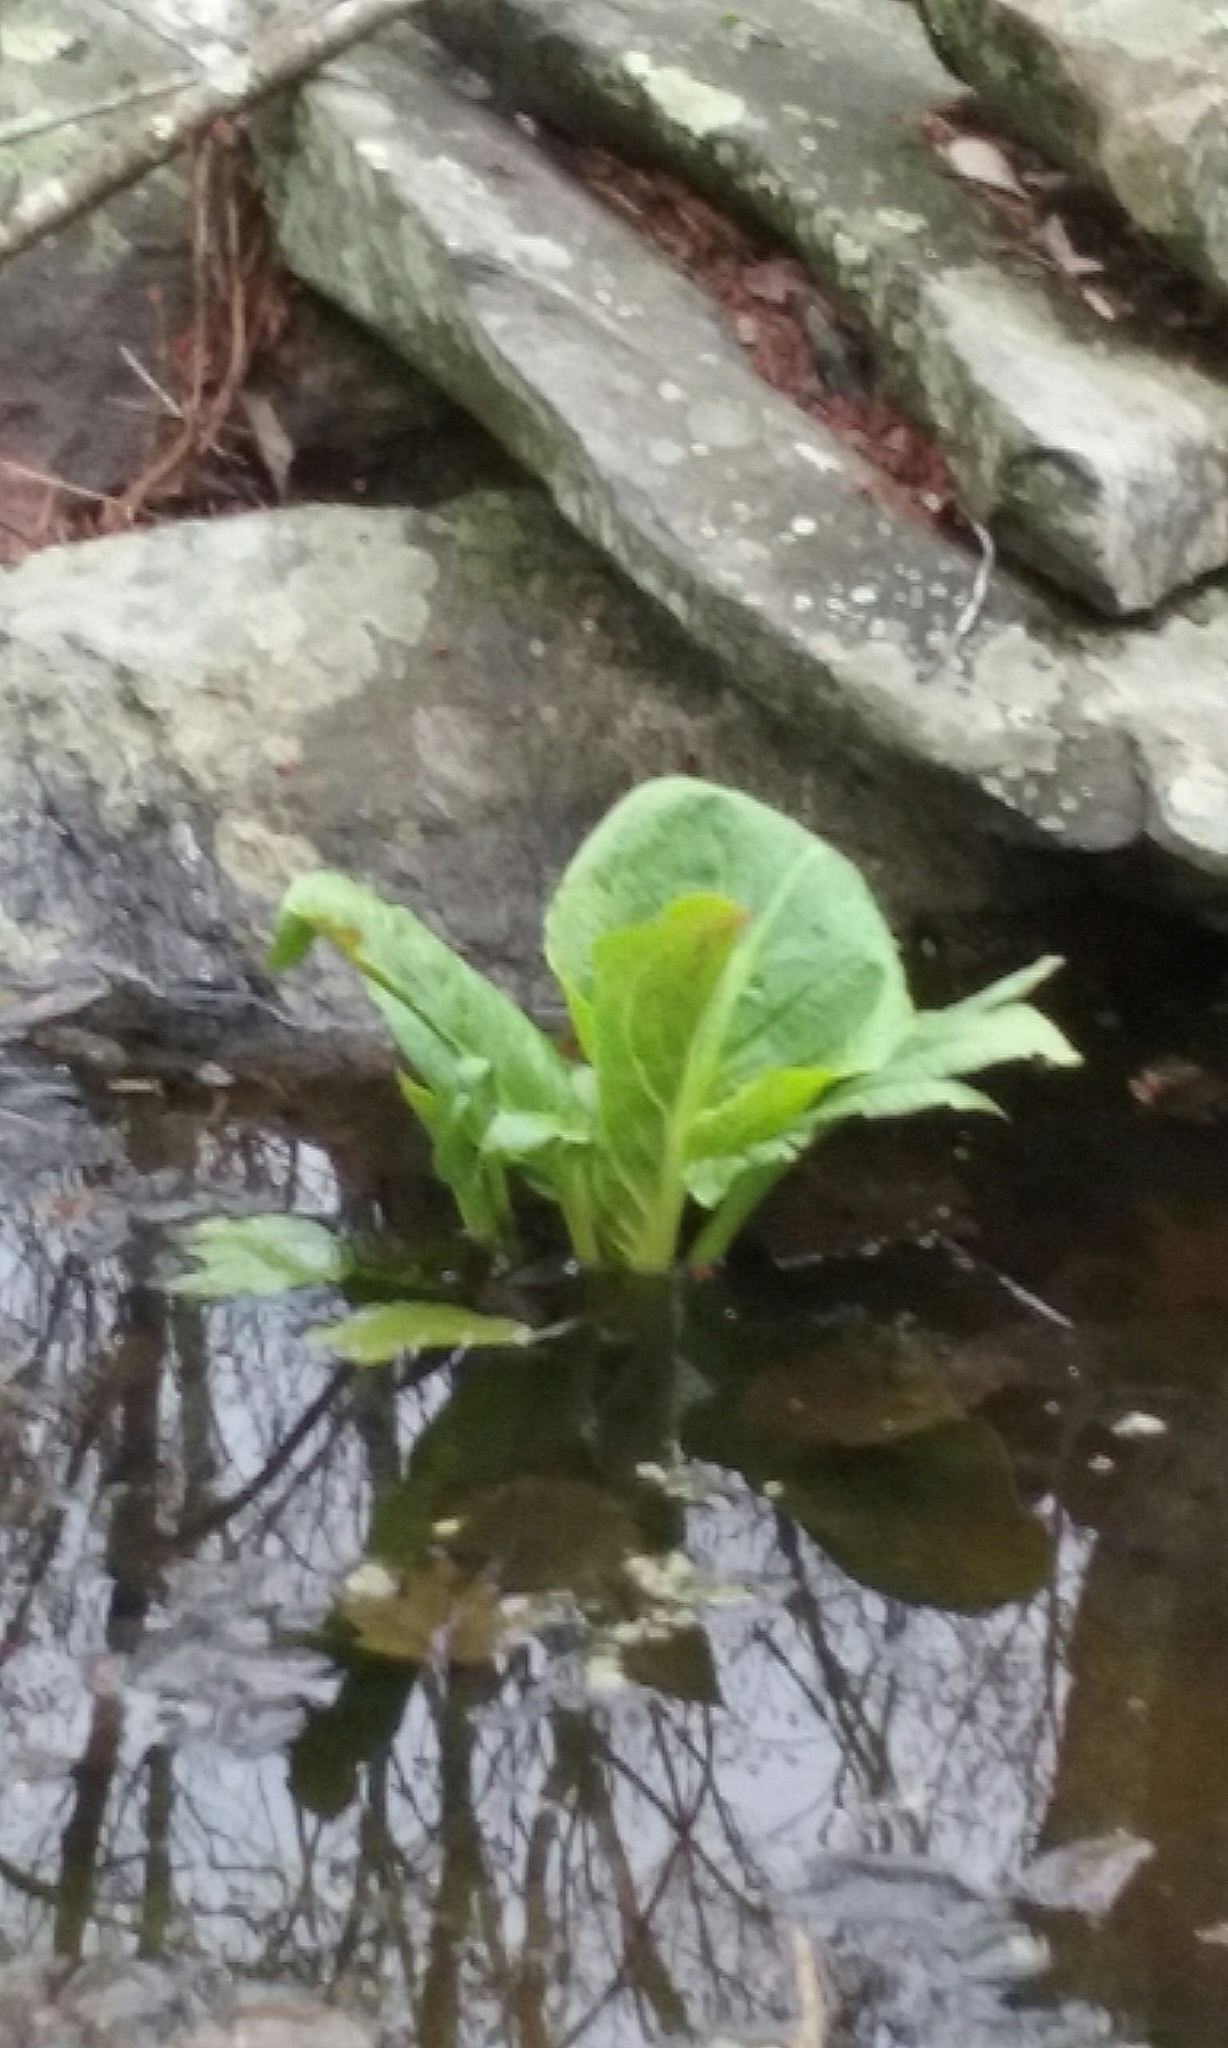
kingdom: Plantae
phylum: Tracheophyta
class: Liliopsida
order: Alismatales
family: Araceae
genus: Symplocarpus
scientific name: Symplocarpus foetidus
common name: Eastern skunk cabbage
